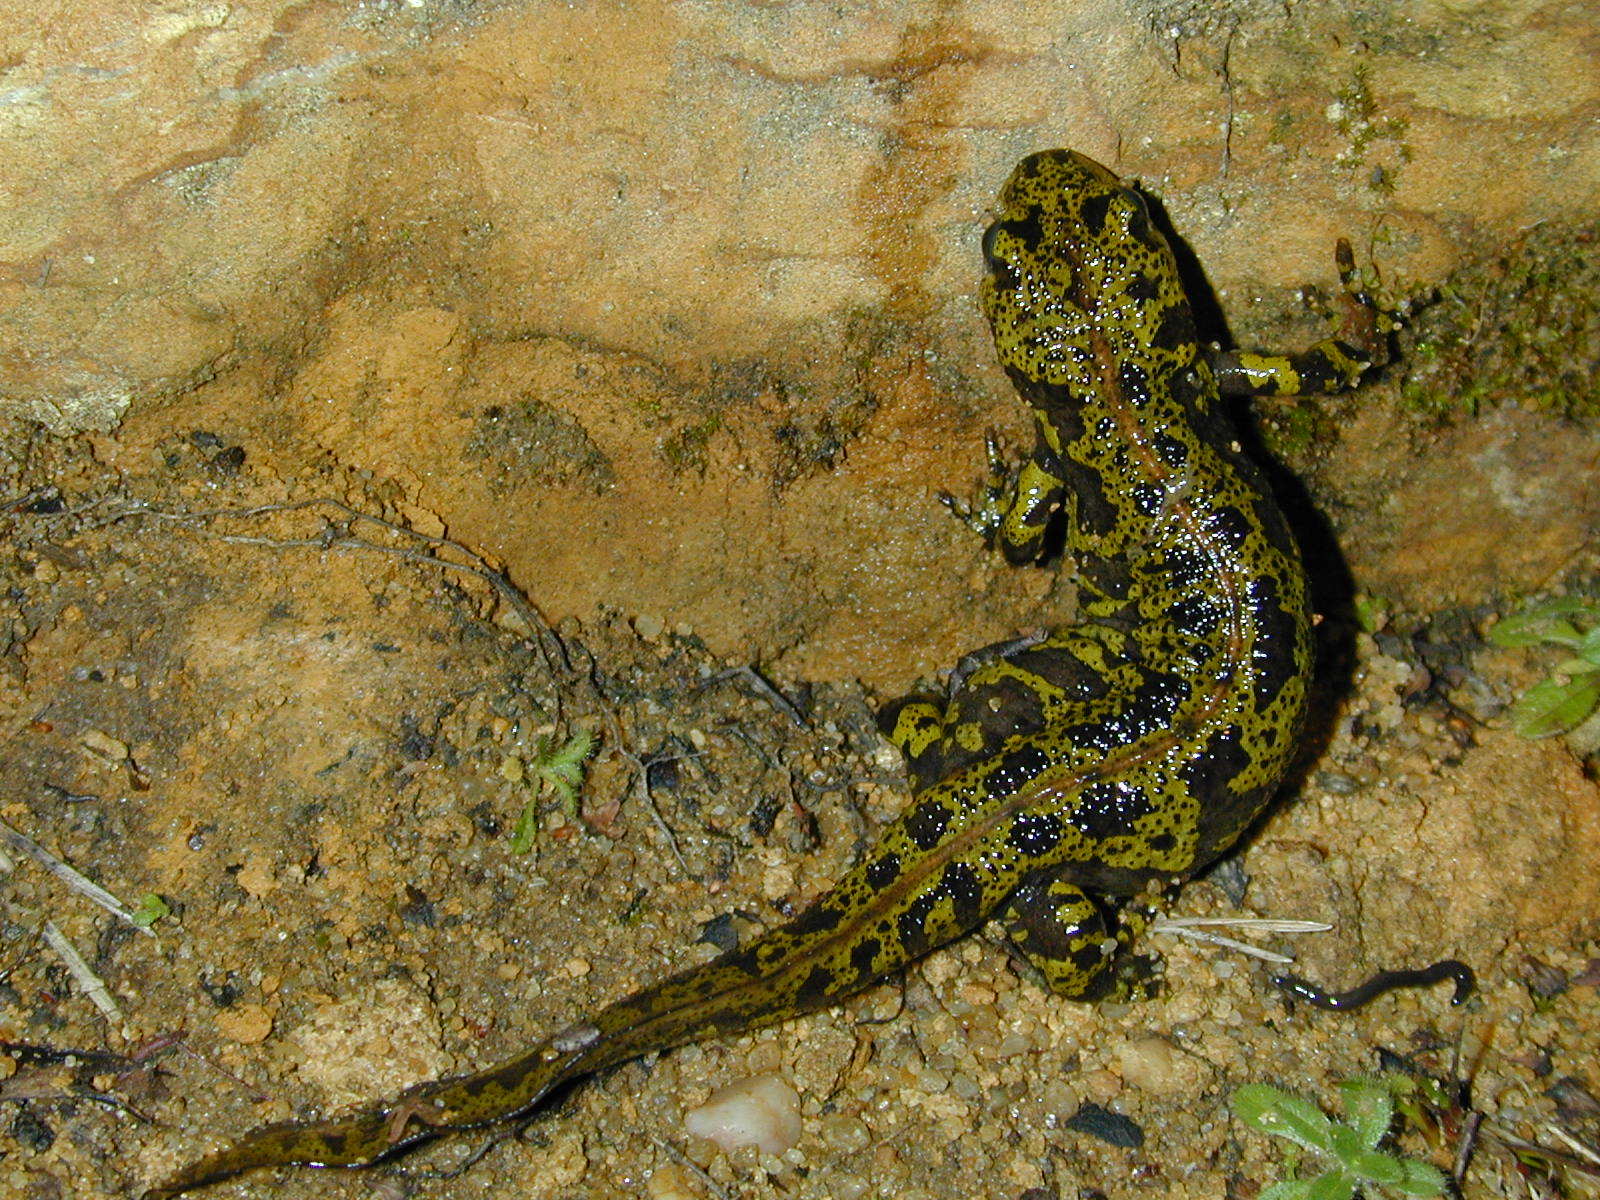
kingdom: Animalia
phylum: Chordata
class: Amphibia
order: Caudata
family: Salamandridae
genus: Triturus
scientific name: Triturus marmoratus
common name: Marbled newt
